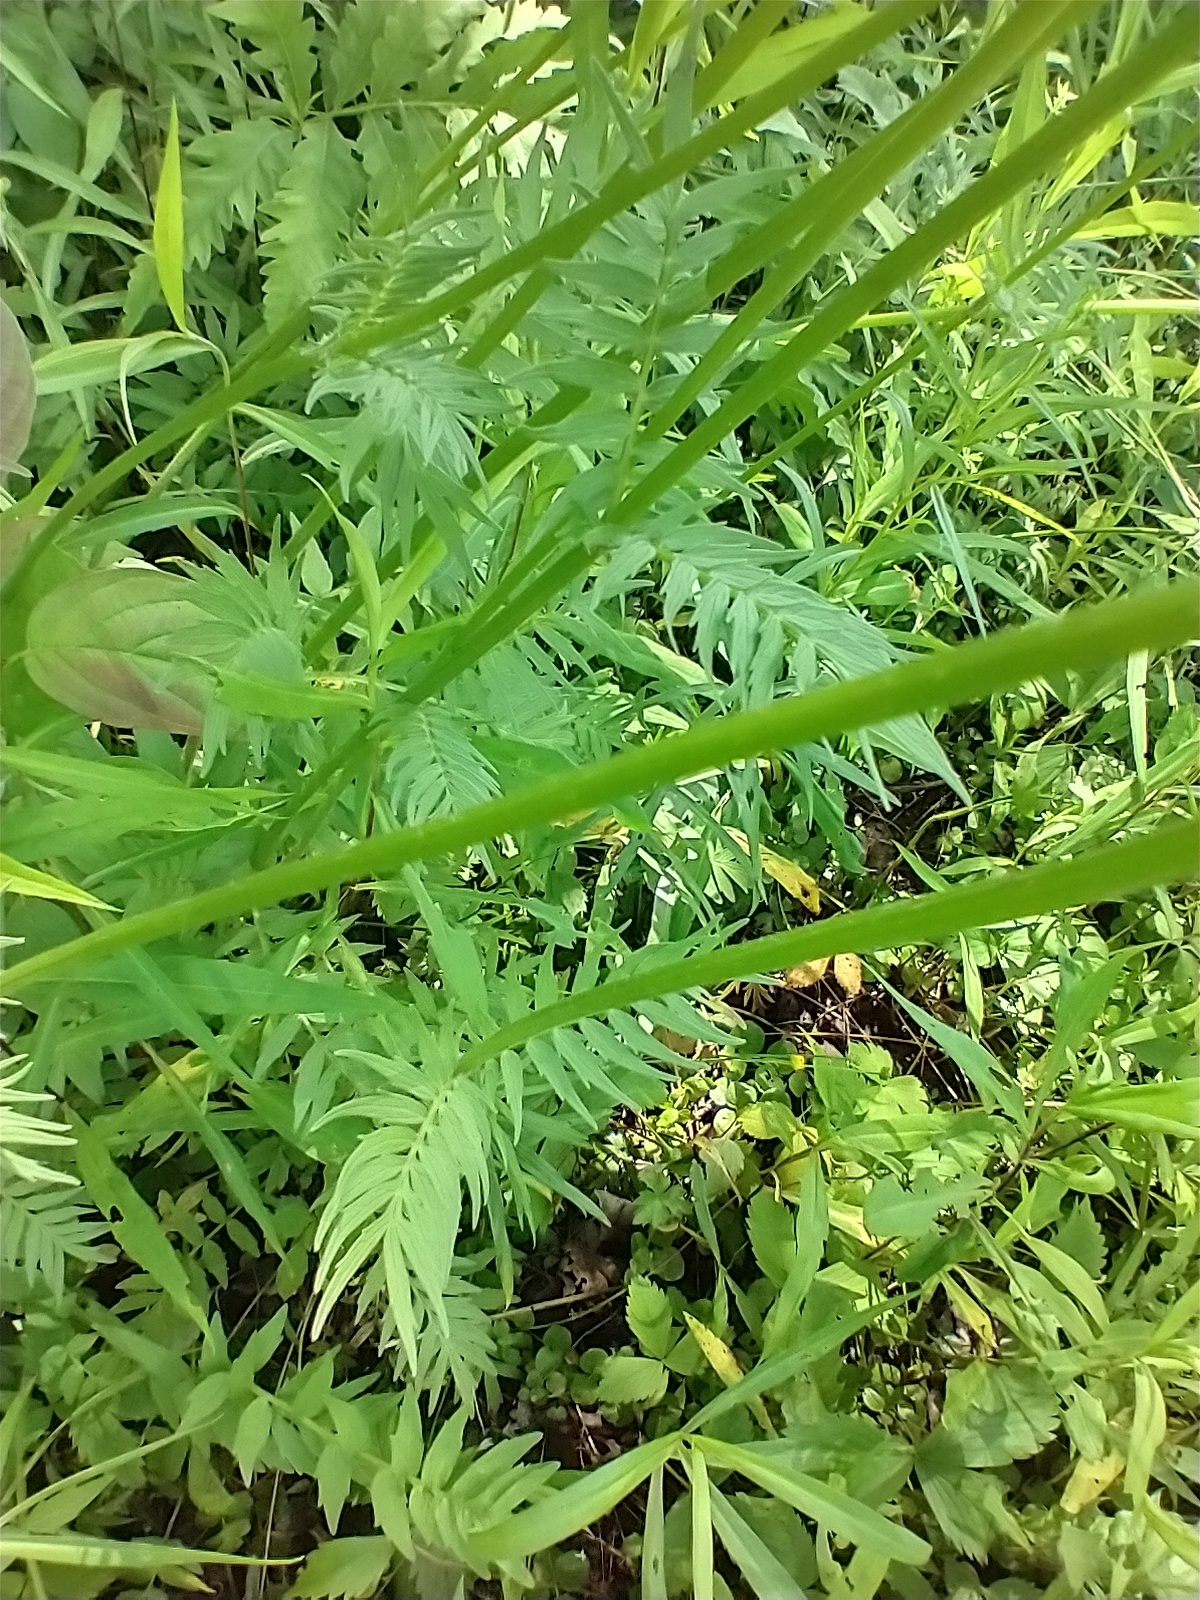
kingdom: Plantae
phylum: Tracheophyta
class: Magnoliopsida
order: Dipsacales
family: Caprifoliaceae
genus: Valeriana
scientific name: Valeriana officinalis
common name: Common valerian
